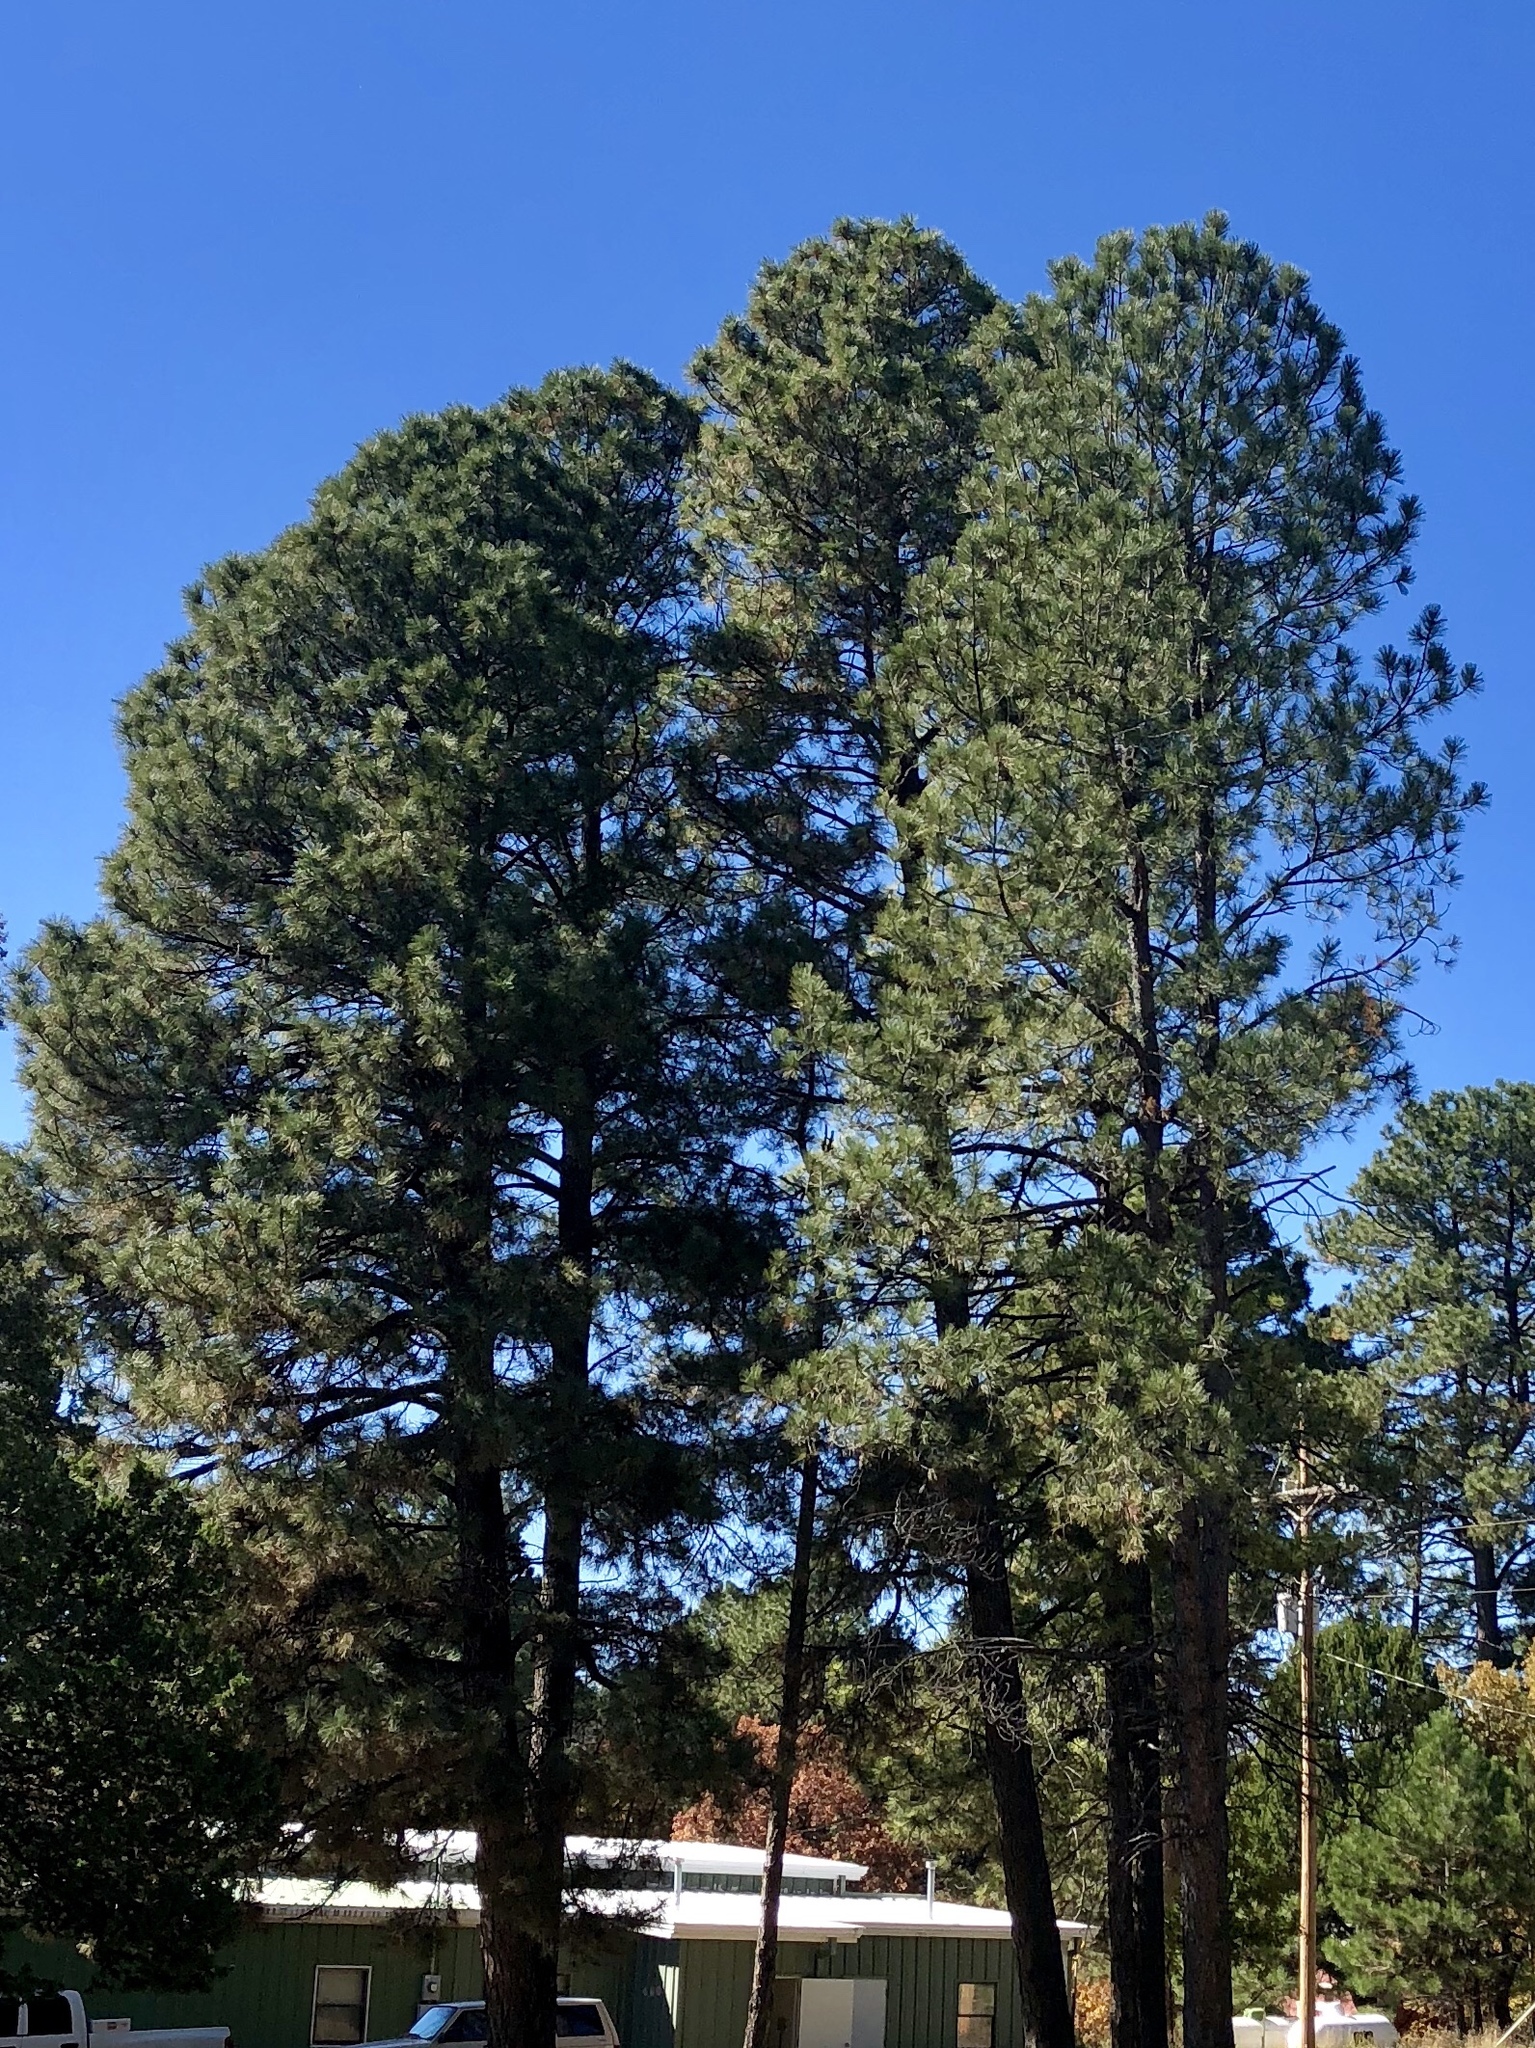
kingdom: Plantae
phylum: Tracheophyta
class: Pinopsida
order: Pinales
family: Pinaceae
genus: Pinus
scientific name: Pinus ponderosa
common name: Western yellow-pine
